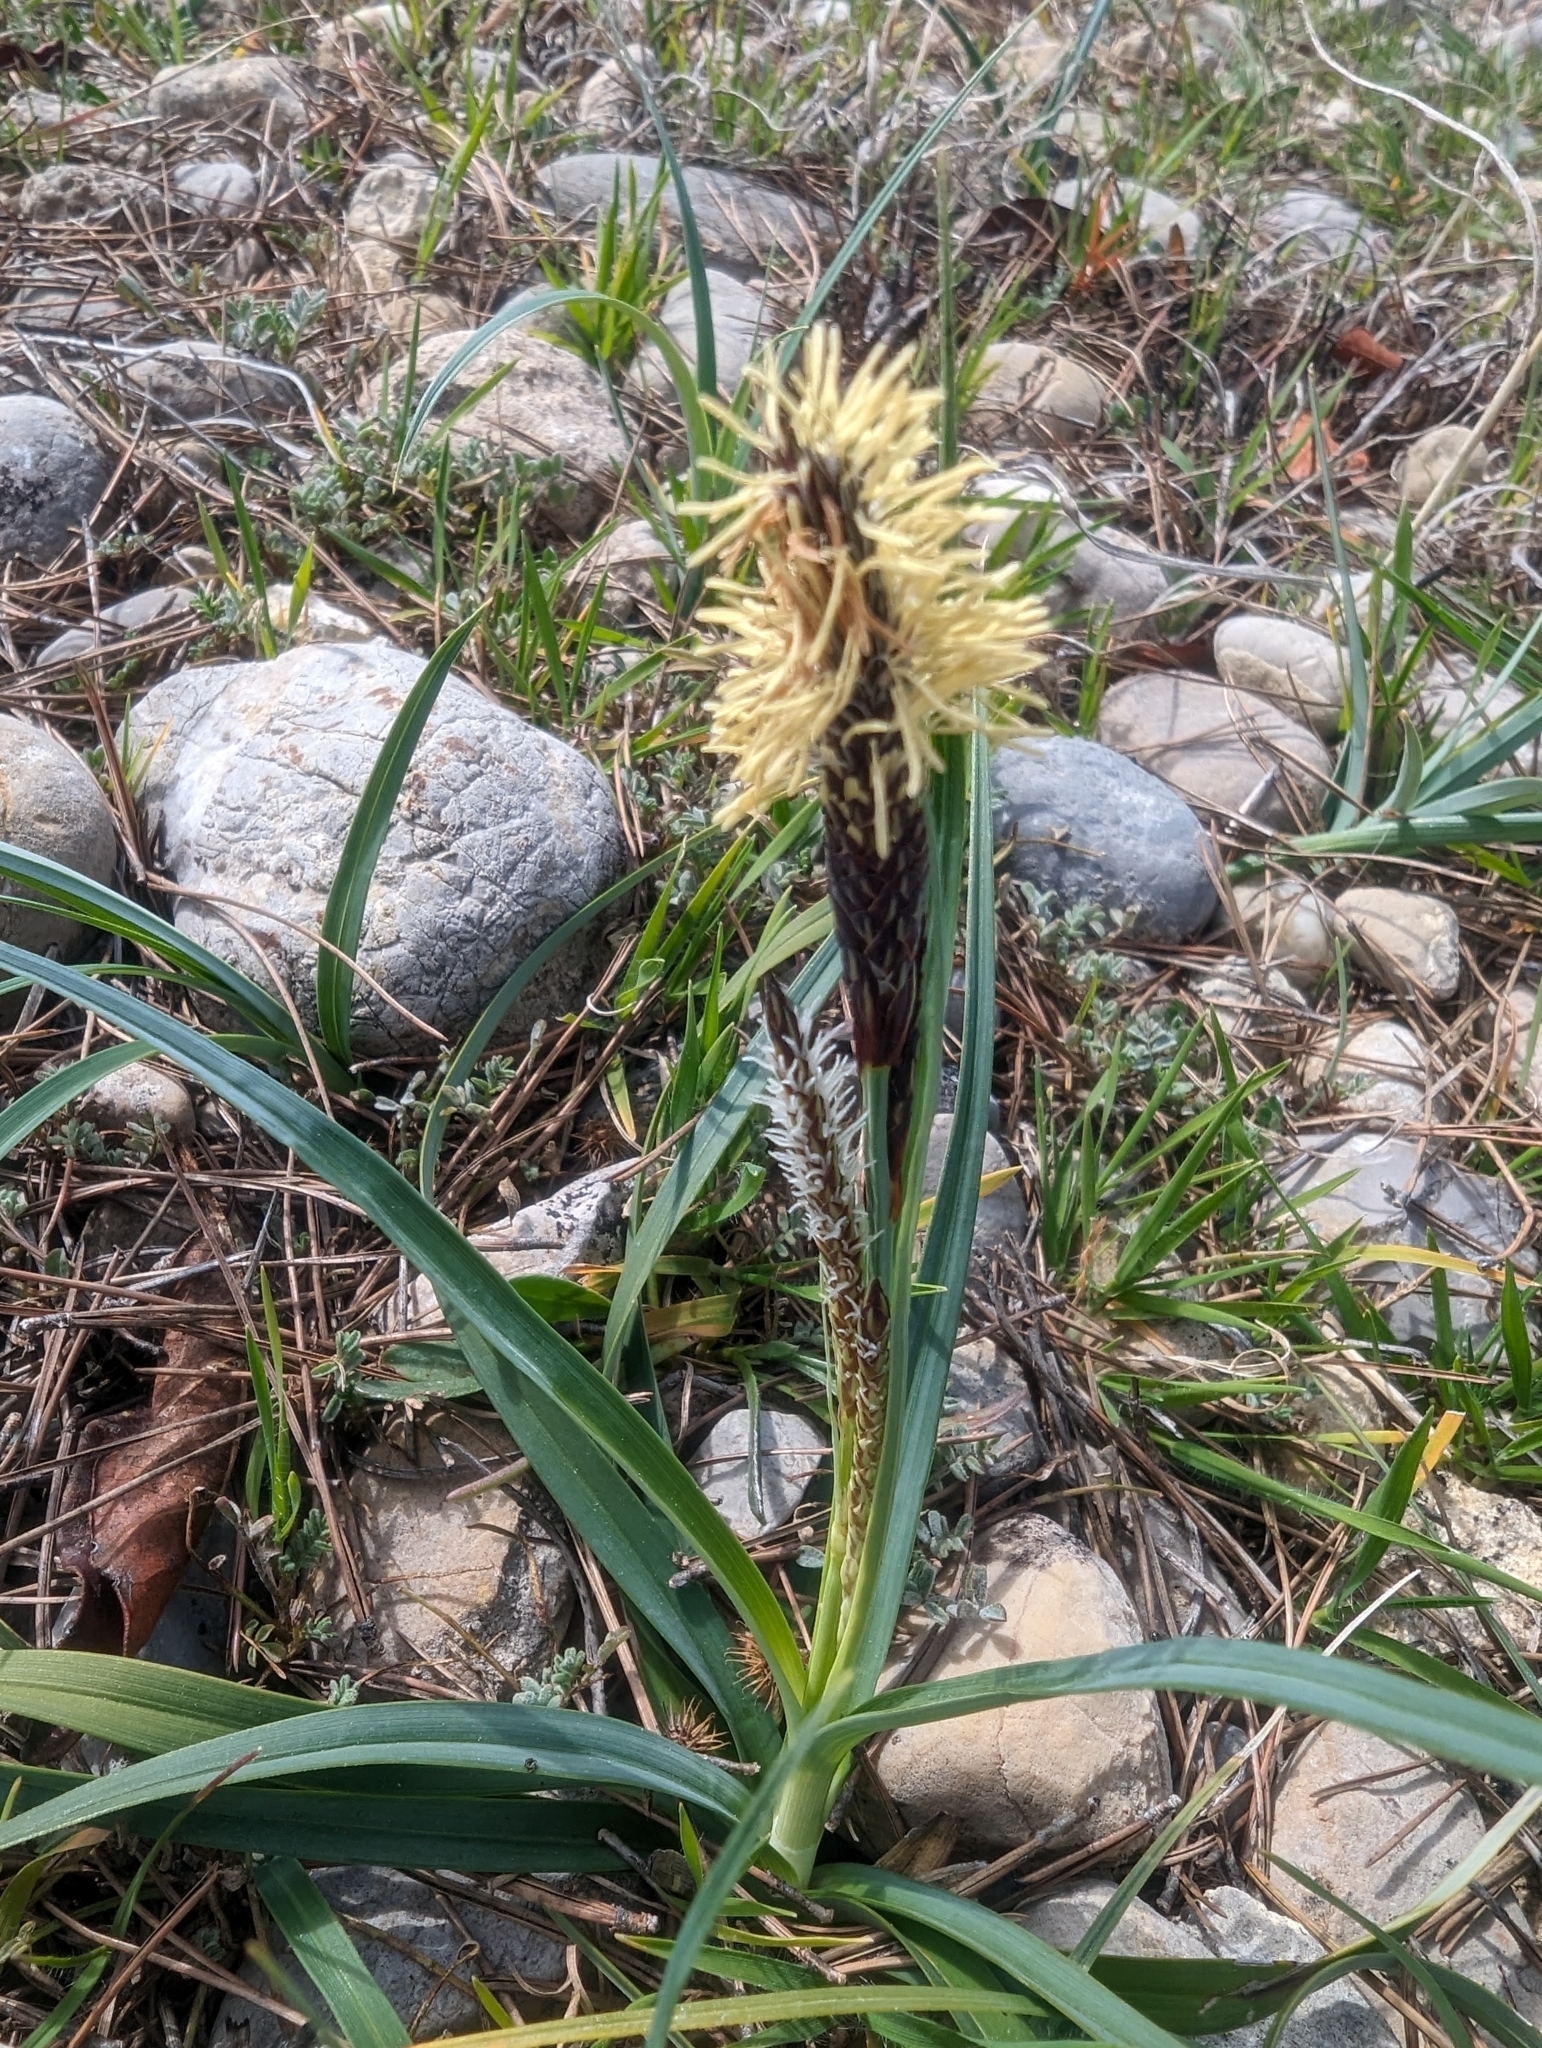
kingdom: Plantae
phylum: Tracheophyta
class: Liliopsida
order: Poales
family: Cyperaceae
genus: Carex
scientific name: Carex flacca
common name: Glaucous sedge
